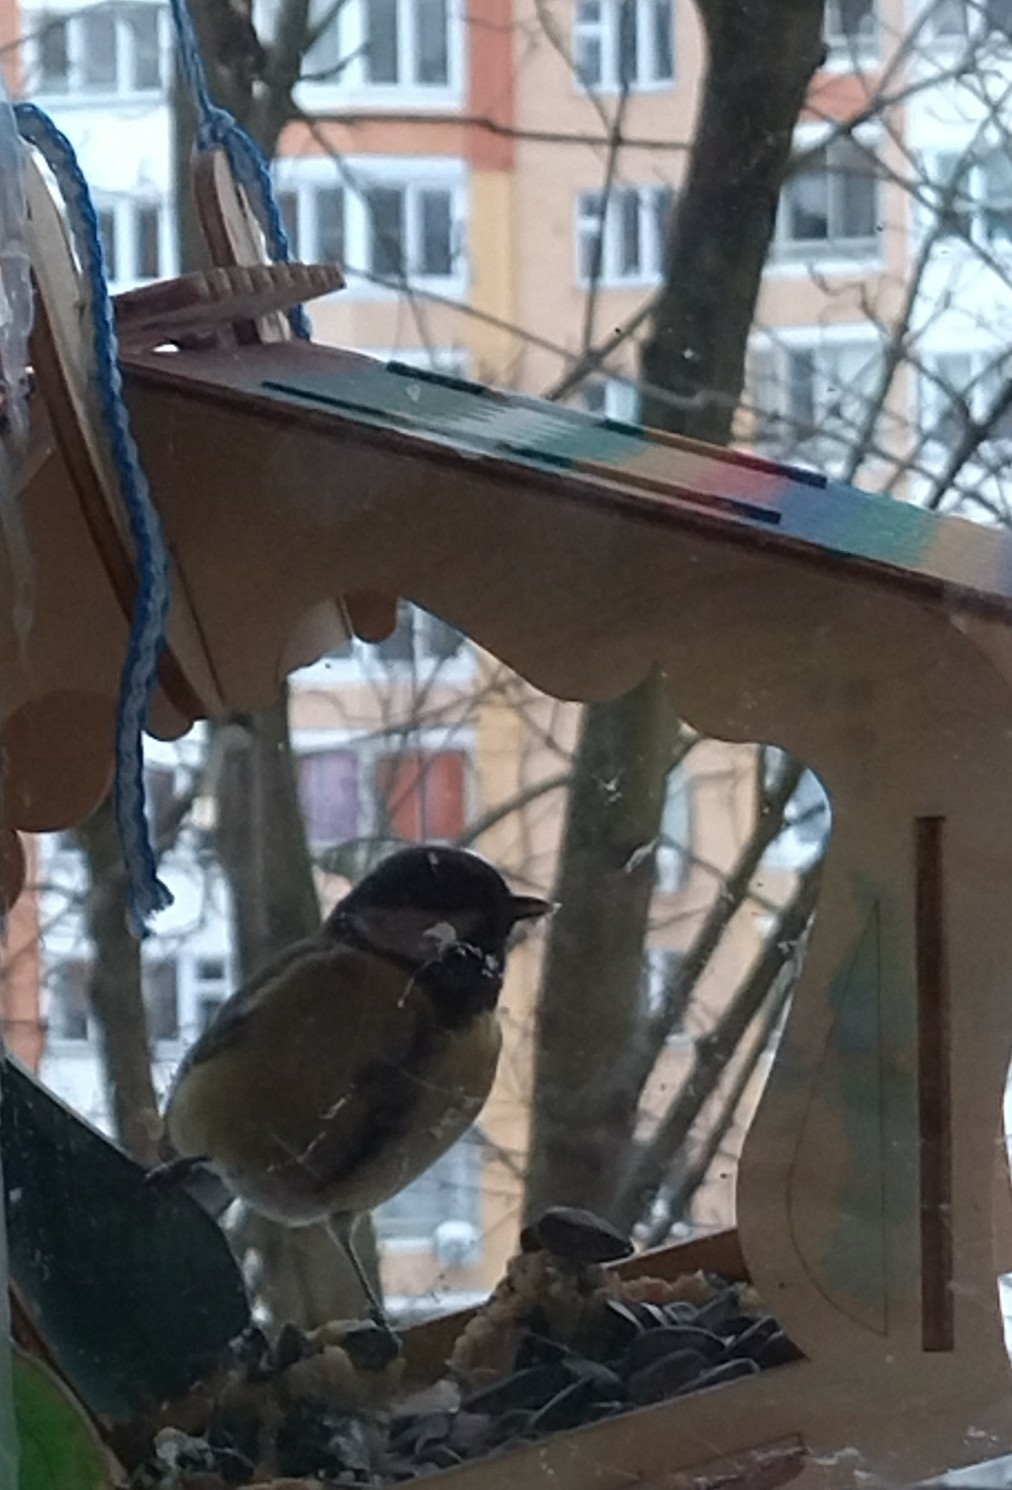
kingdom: Animalia
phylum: Chordata
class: Aves
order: Passeriformes
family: Paridae
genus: Parus
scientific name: Parus major
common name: Great tit
